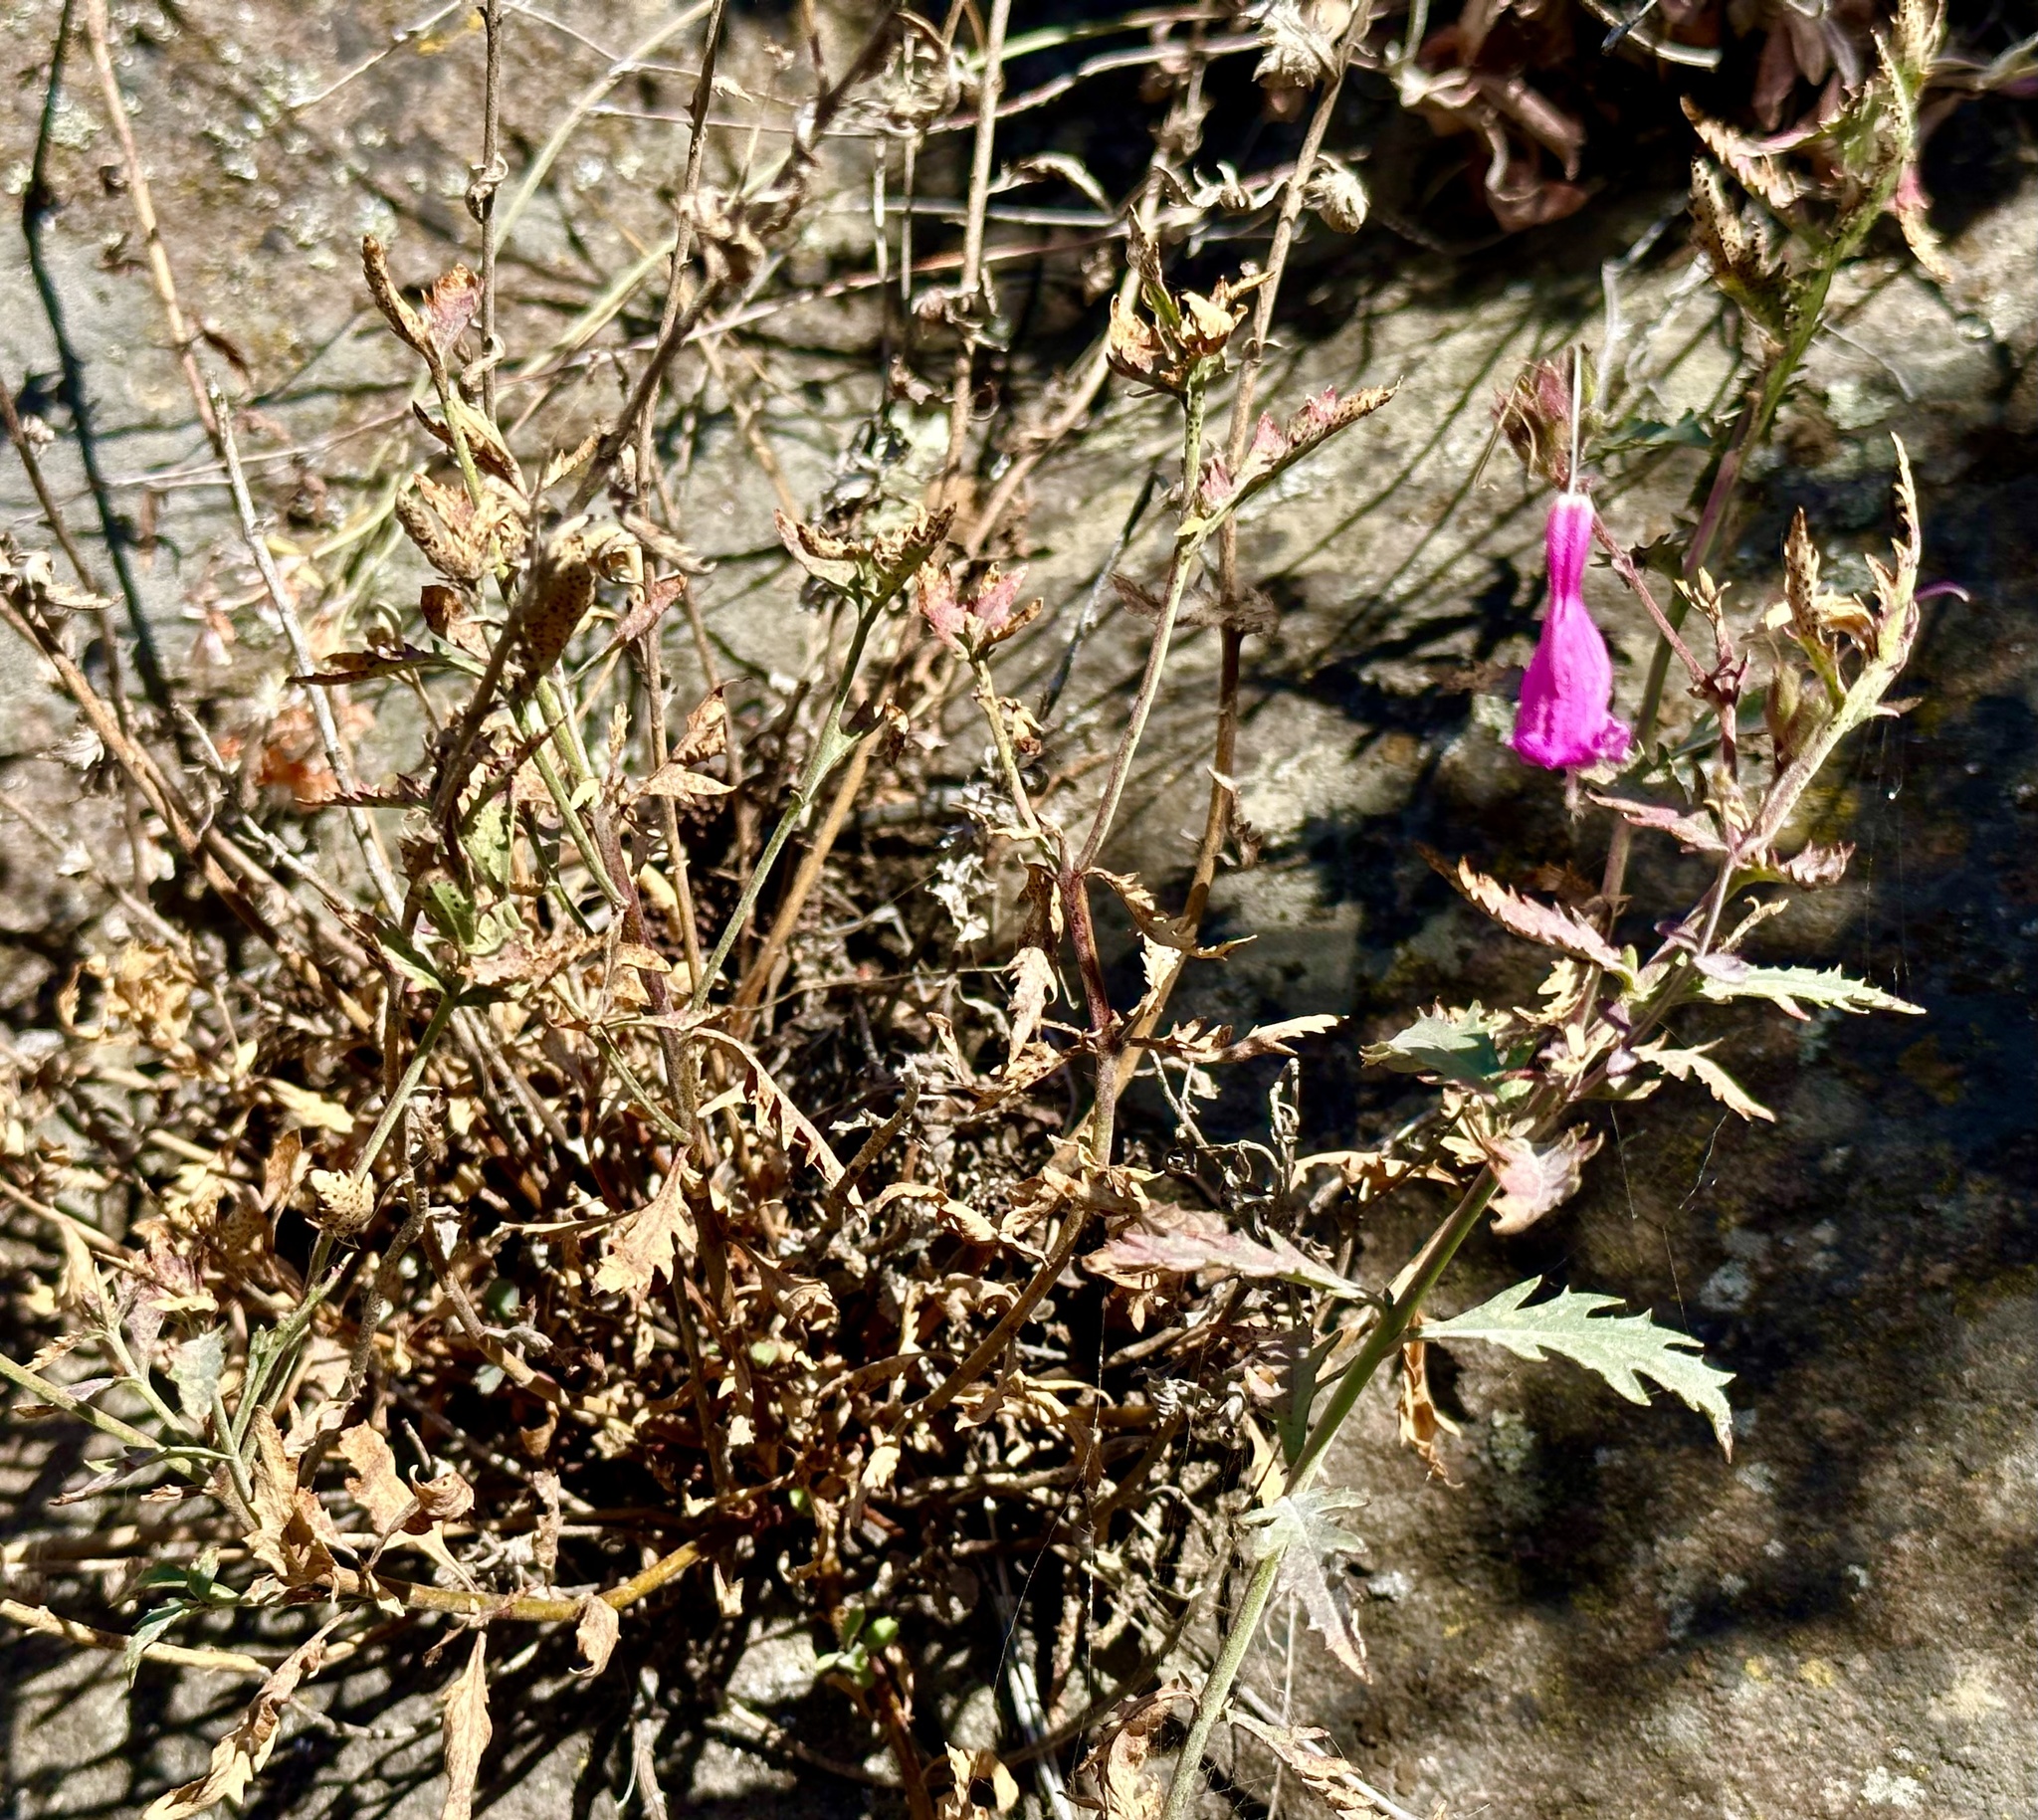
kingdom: Plantae
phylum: Tracheophyta
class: Magnoliopsida
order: Lamiales
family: Plantaginaceae
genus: Penstemon
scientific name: Penstemon richardsonii
